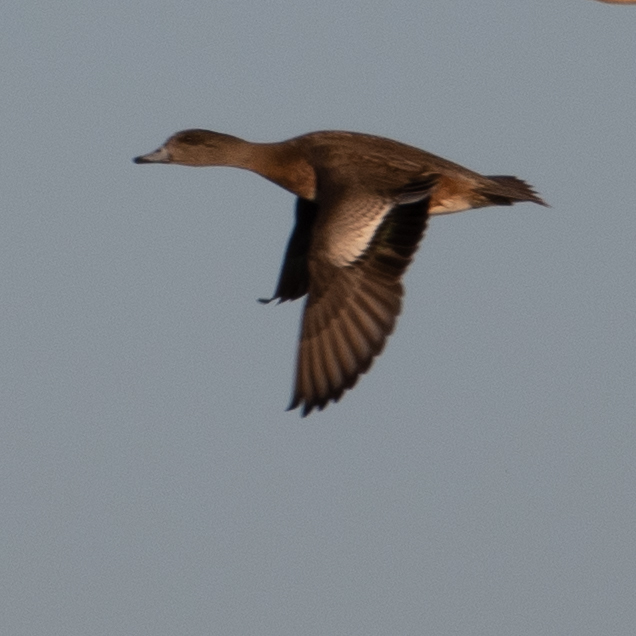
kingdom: Animalia
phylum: Chordata
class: Aves
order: Anseriformes
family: Anatidae
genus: Mareca
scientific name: Mareca americana
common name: American wigeon
